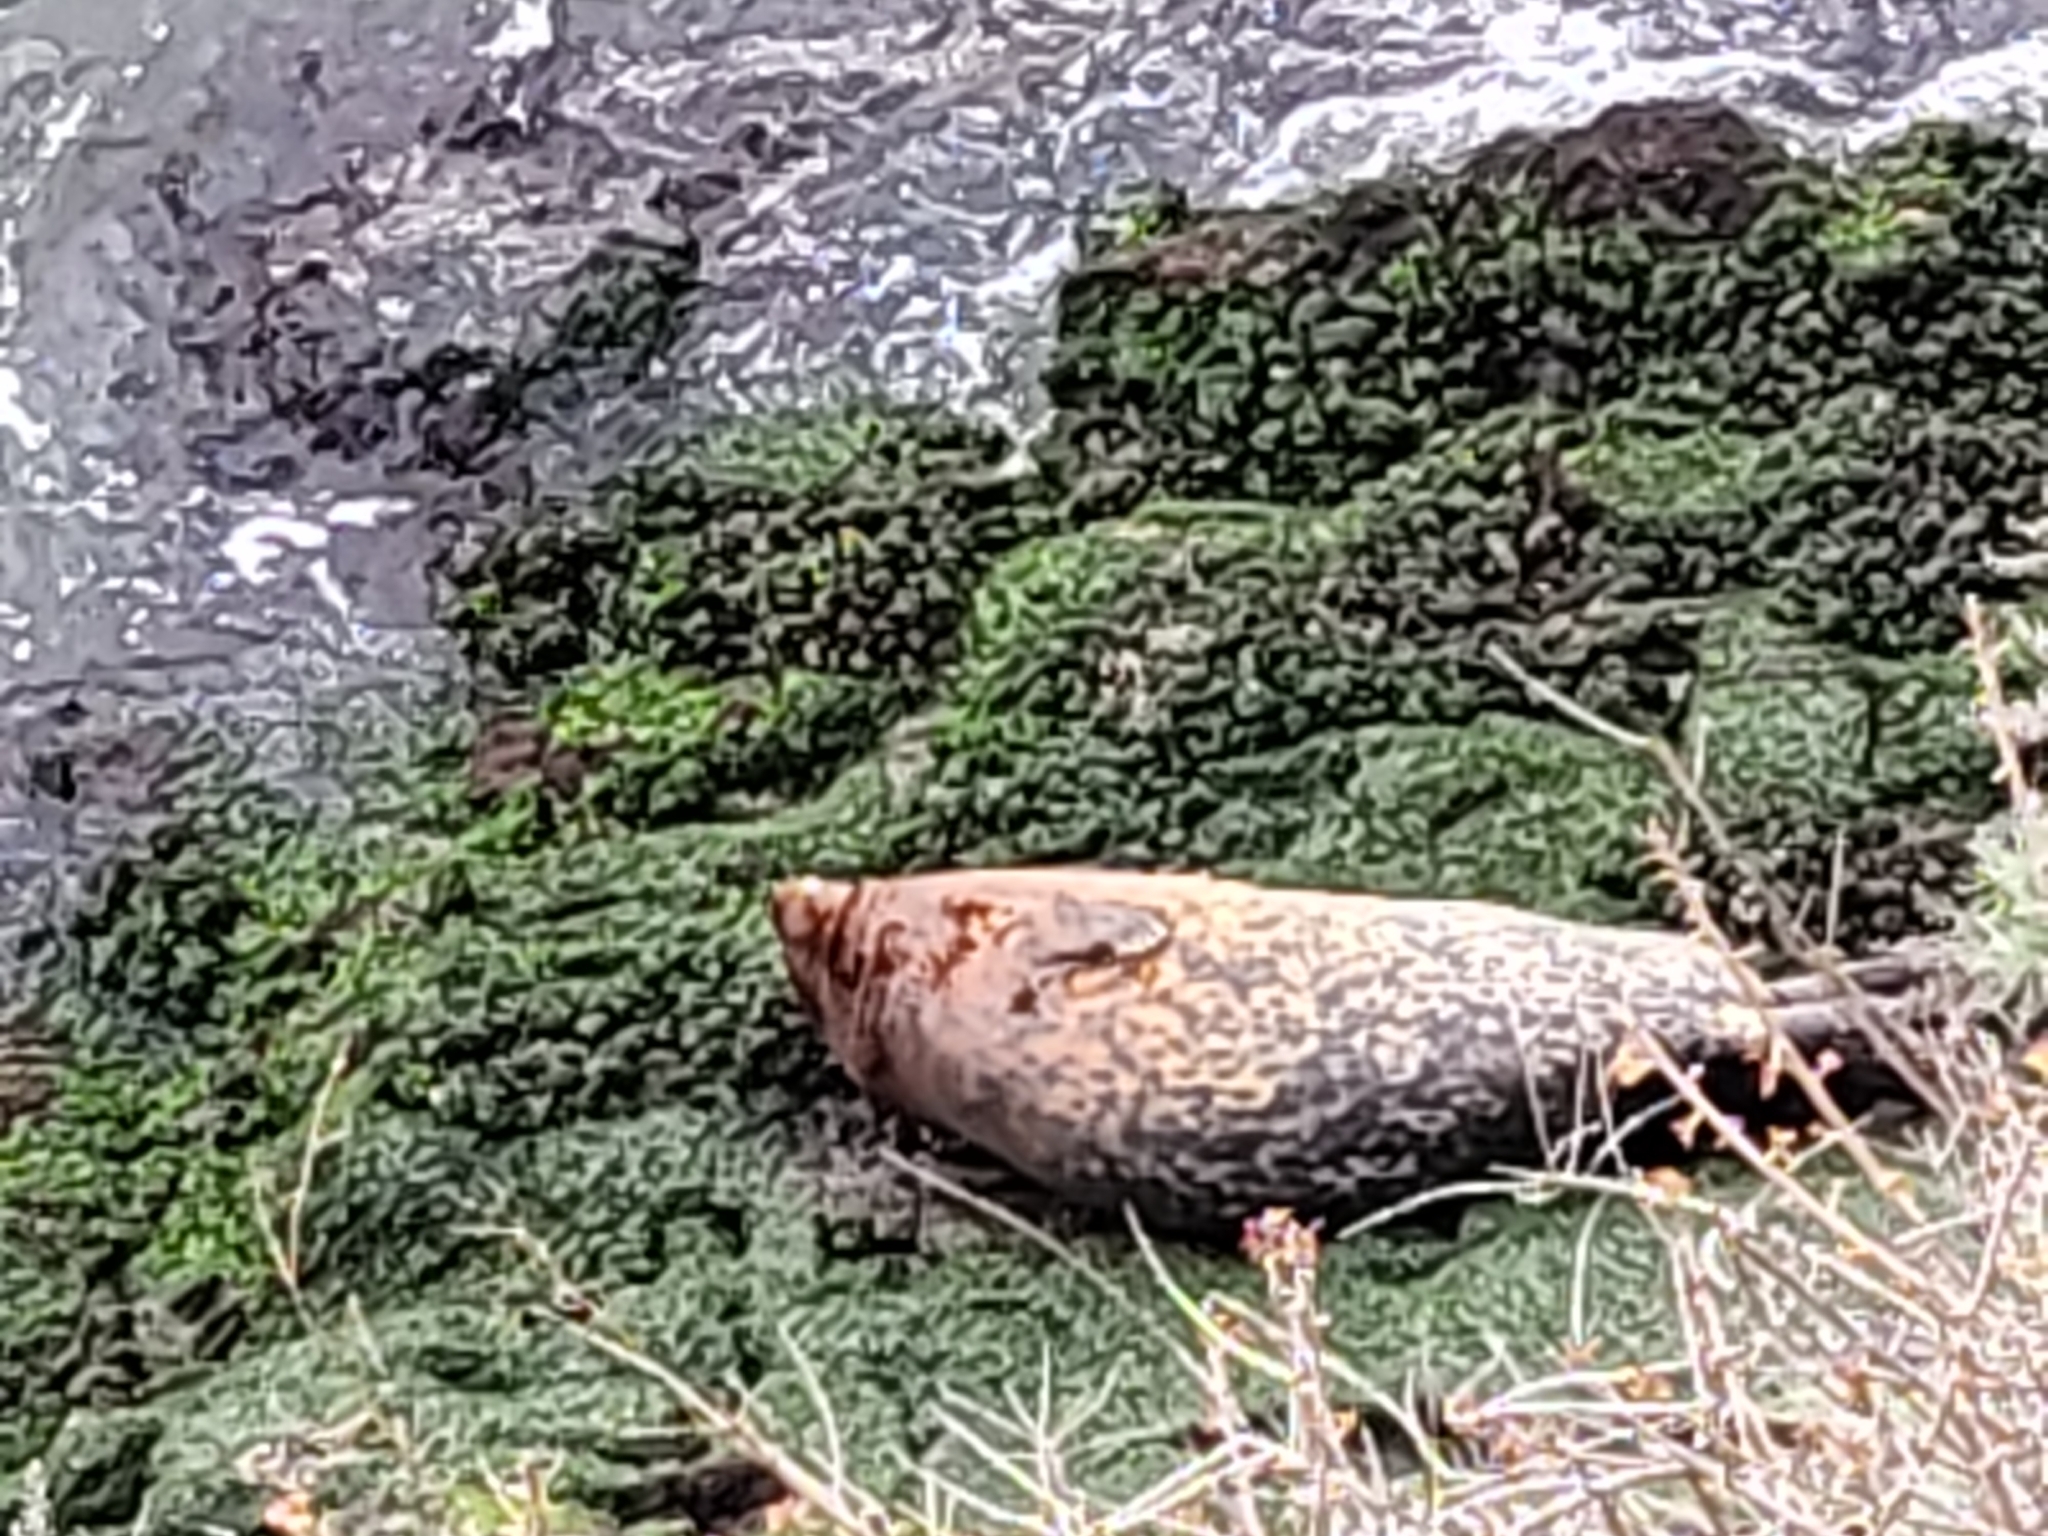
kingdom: Animalia
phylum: Chordata
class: Mammalia
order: Carnivora
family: Phocidae
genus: Phoca
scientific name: Phoca vitulina
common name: Harbor seal
